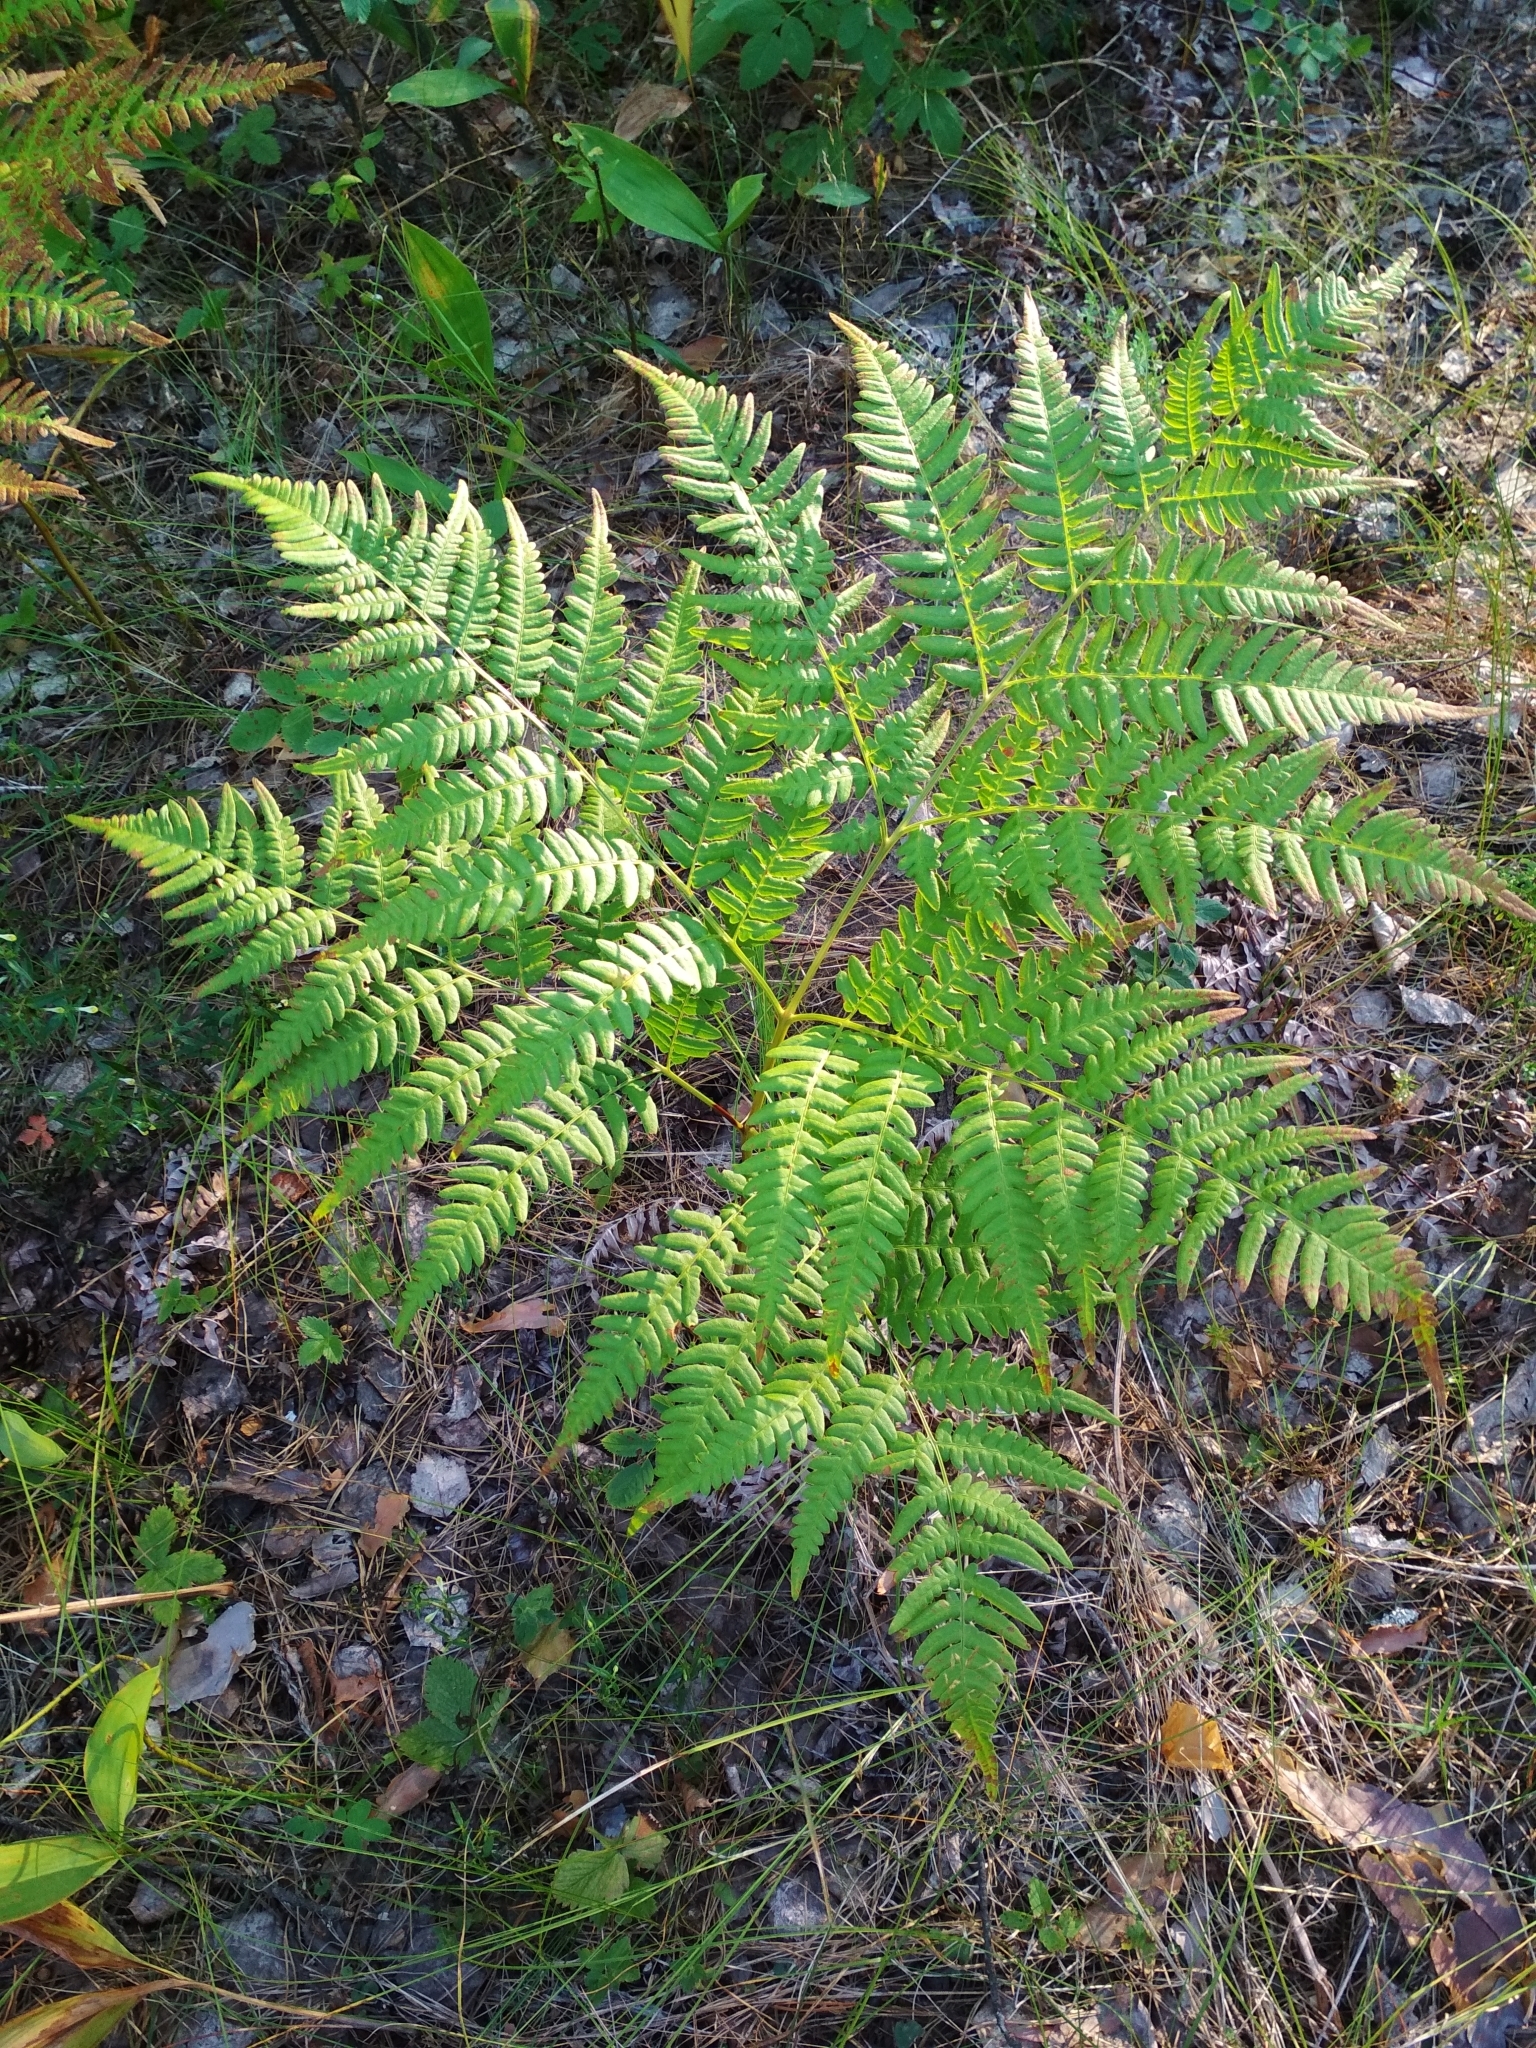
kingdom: Plantae
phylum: Tracheophyta
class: Polypodiopsida
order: Polypodiales
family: Dennstaedtiaceae
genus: Pteridium
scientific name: Pteridium aquilinum
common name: Bracken
